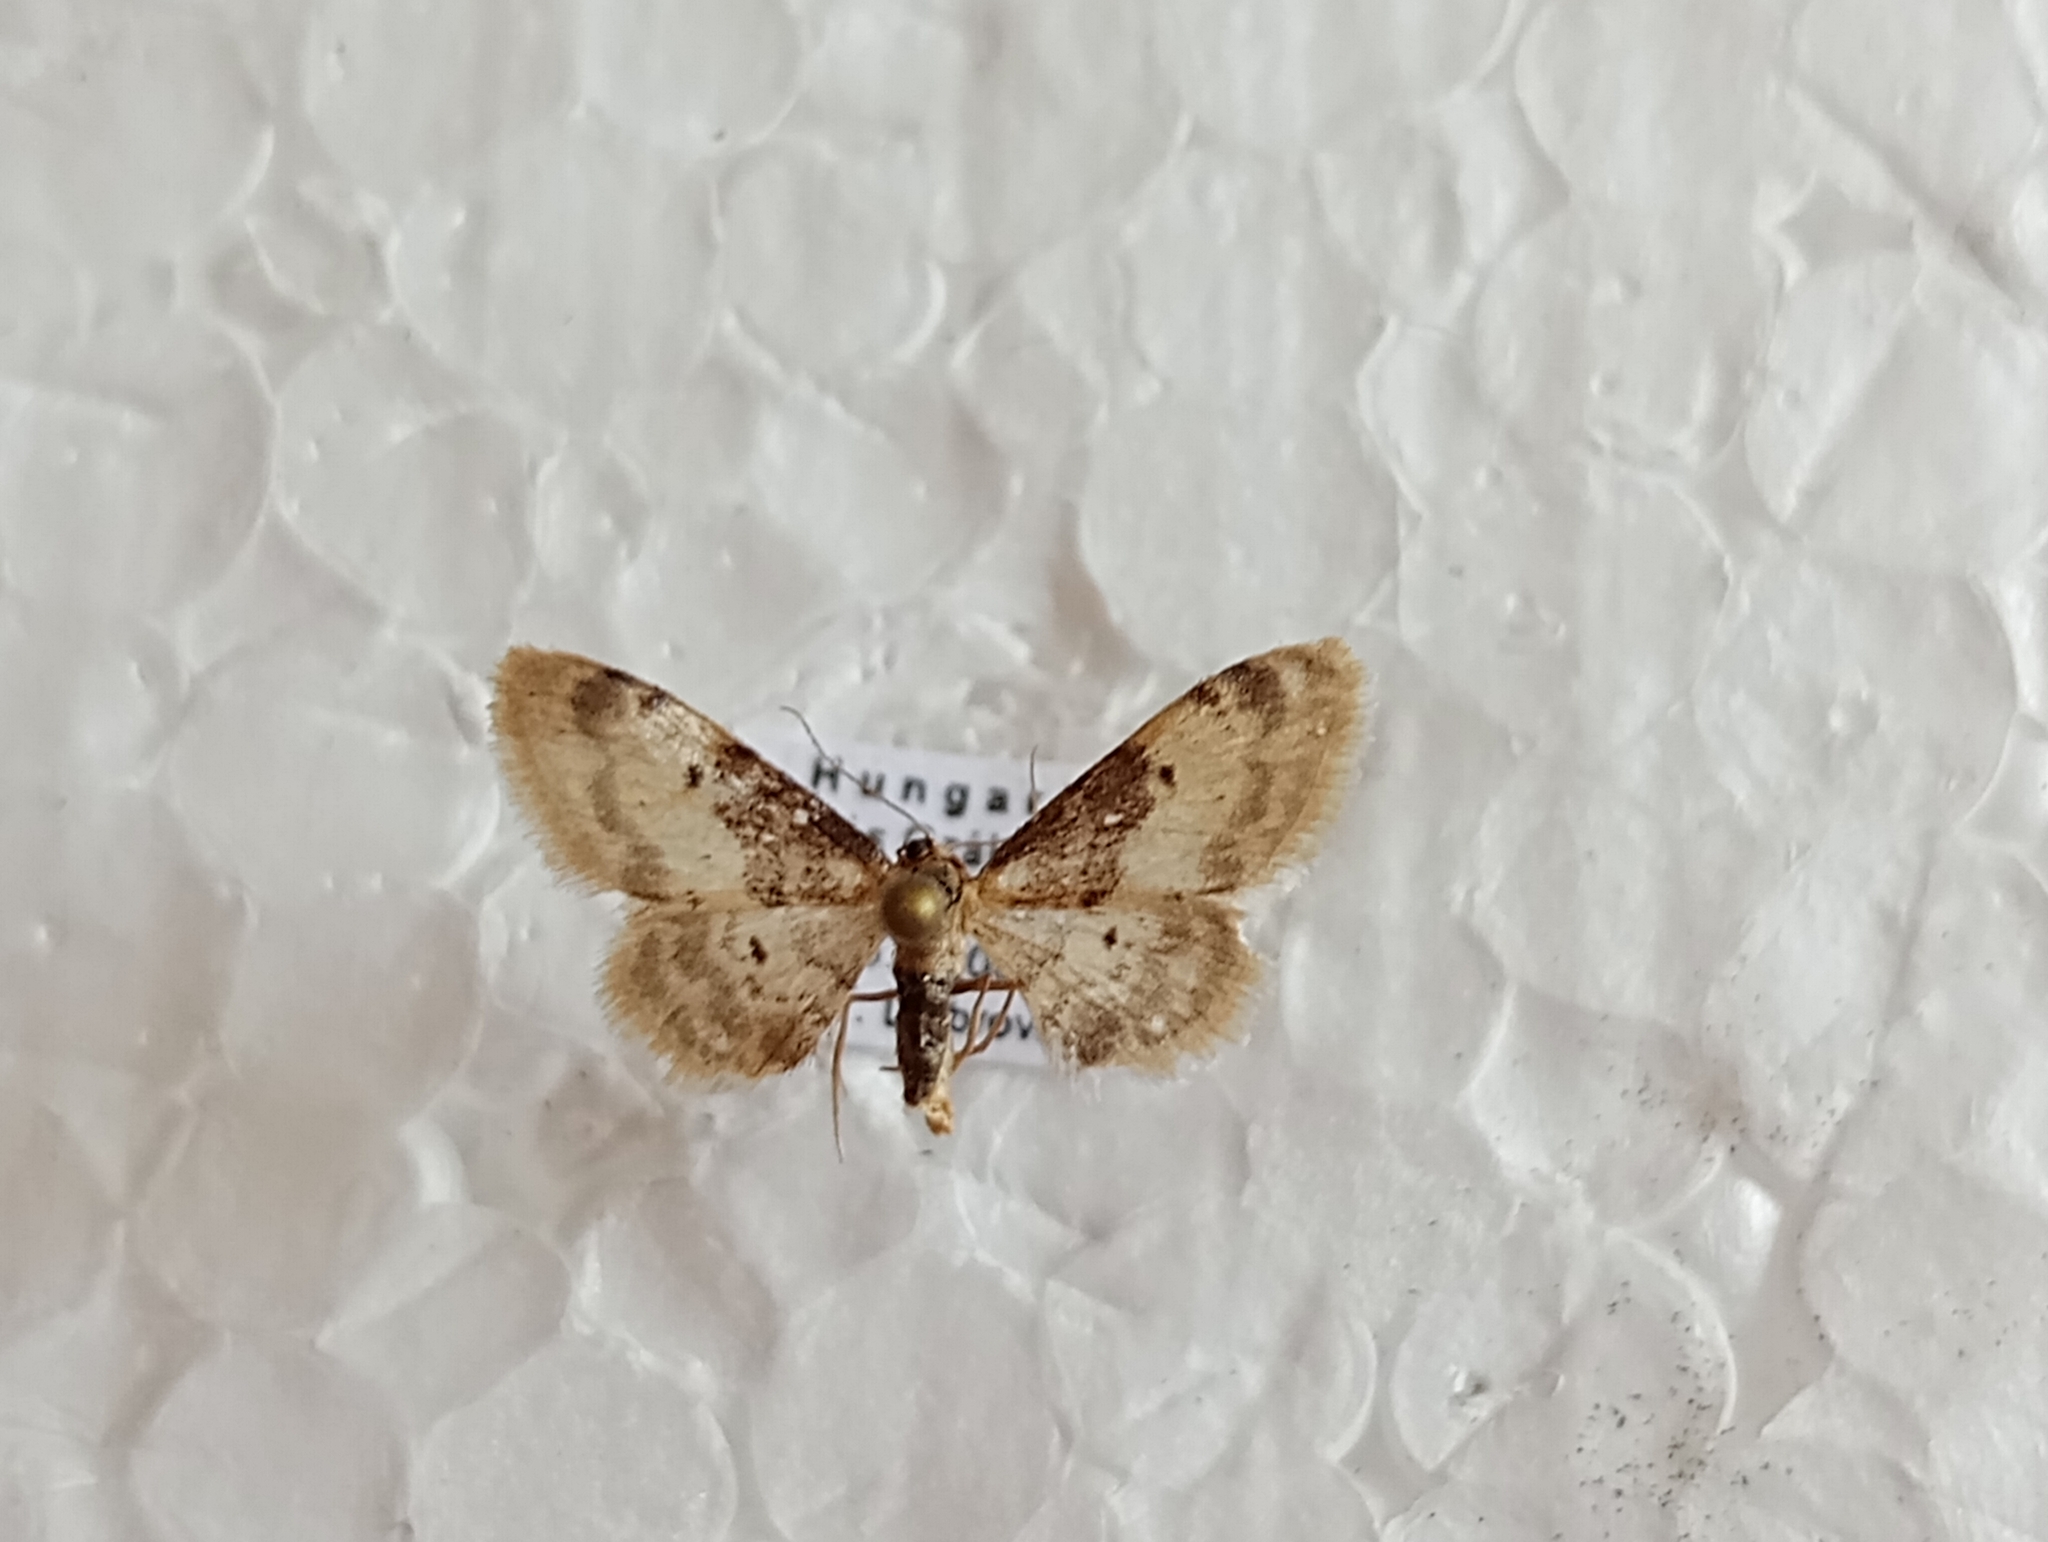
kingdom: Animalia
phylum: Arthropoda
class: Insecta
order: Lepidoptera
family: Geometridae
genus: Idaea
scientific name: Idaea filicata
